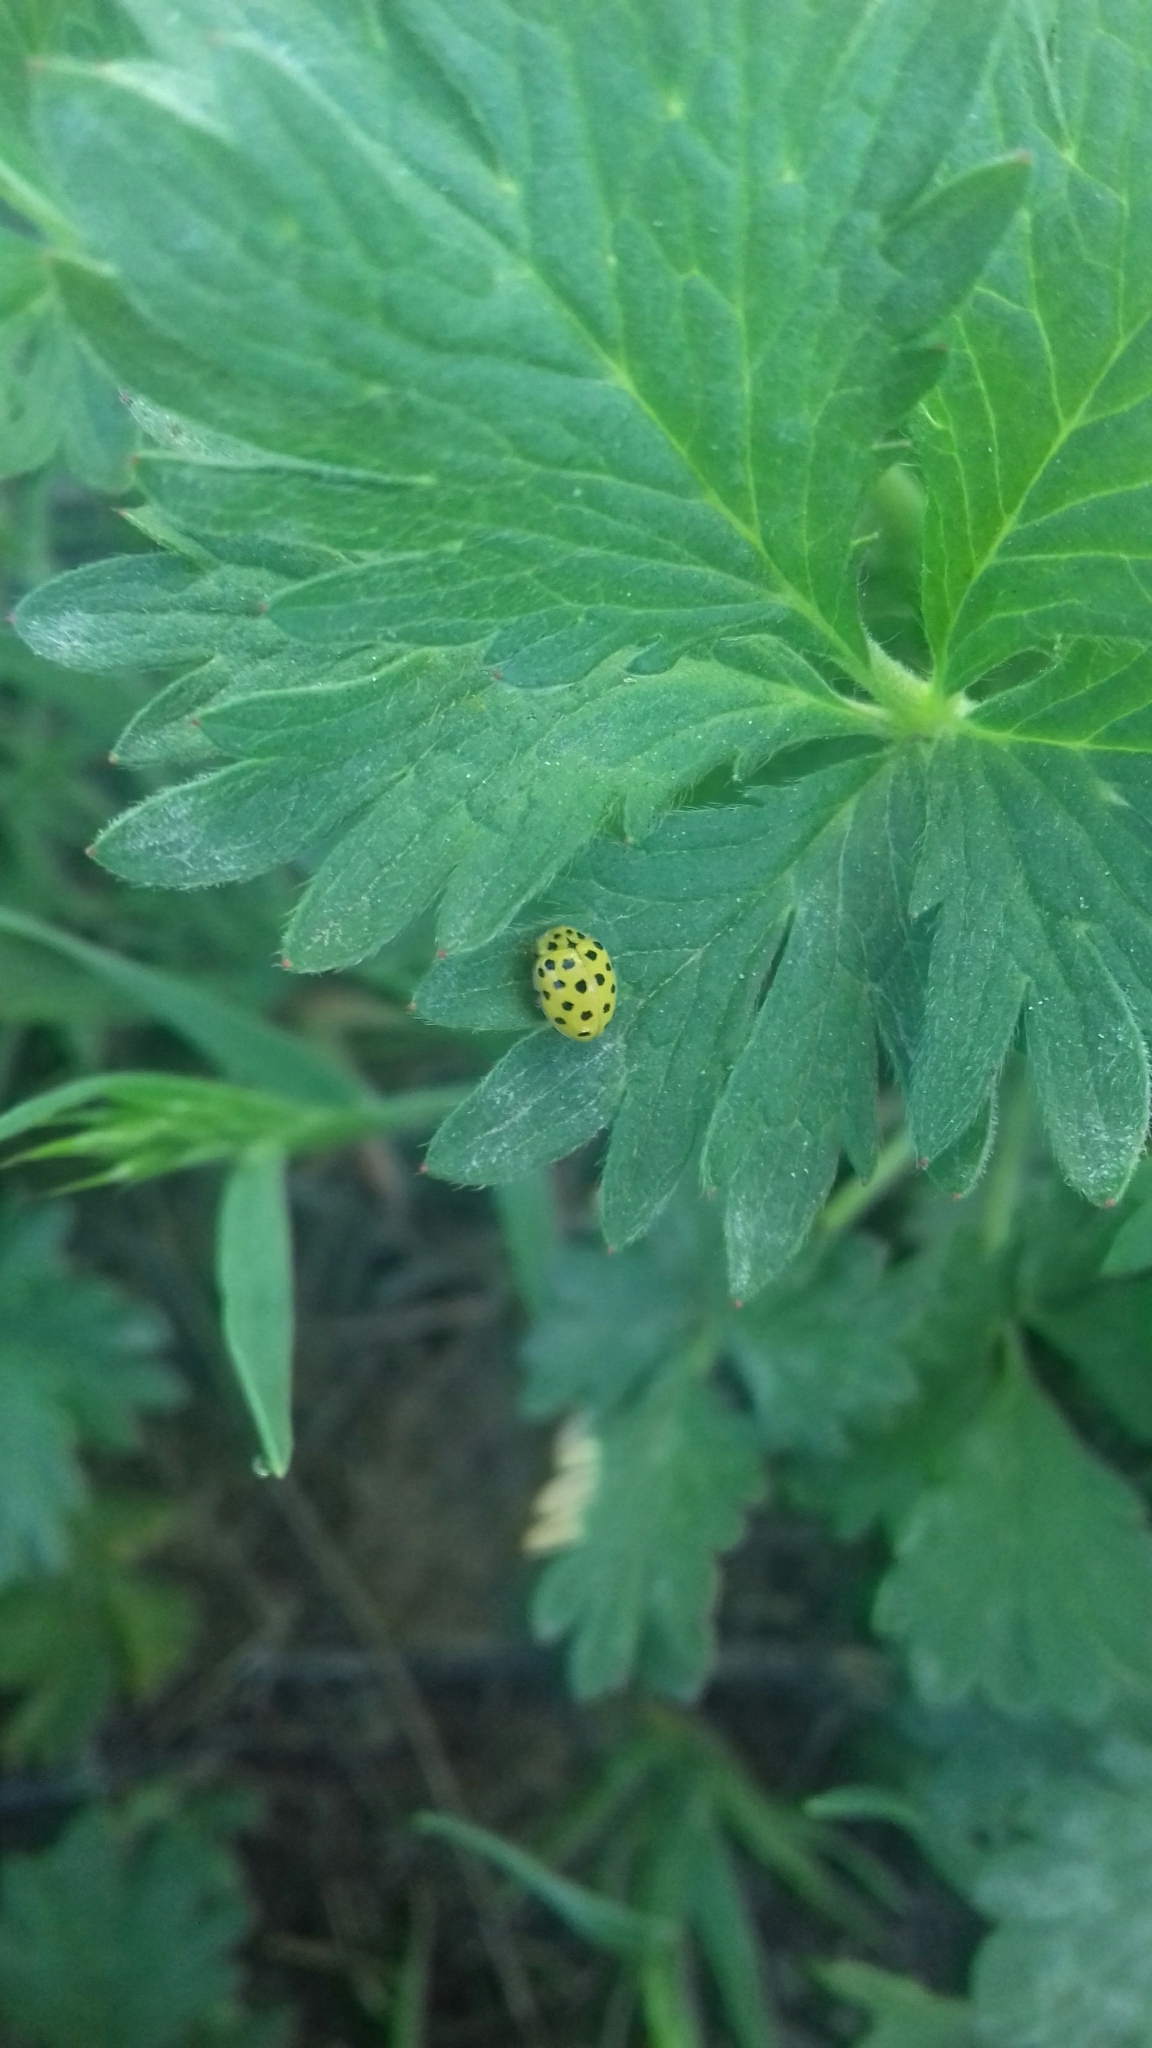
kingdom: Animalia
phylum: Arthropoda
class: Insecta
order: Coleoptera
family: Coccinellidae
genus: Psyllobora
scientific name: Psyllobora vigintiduopunctata
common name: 22-spot ladybird
